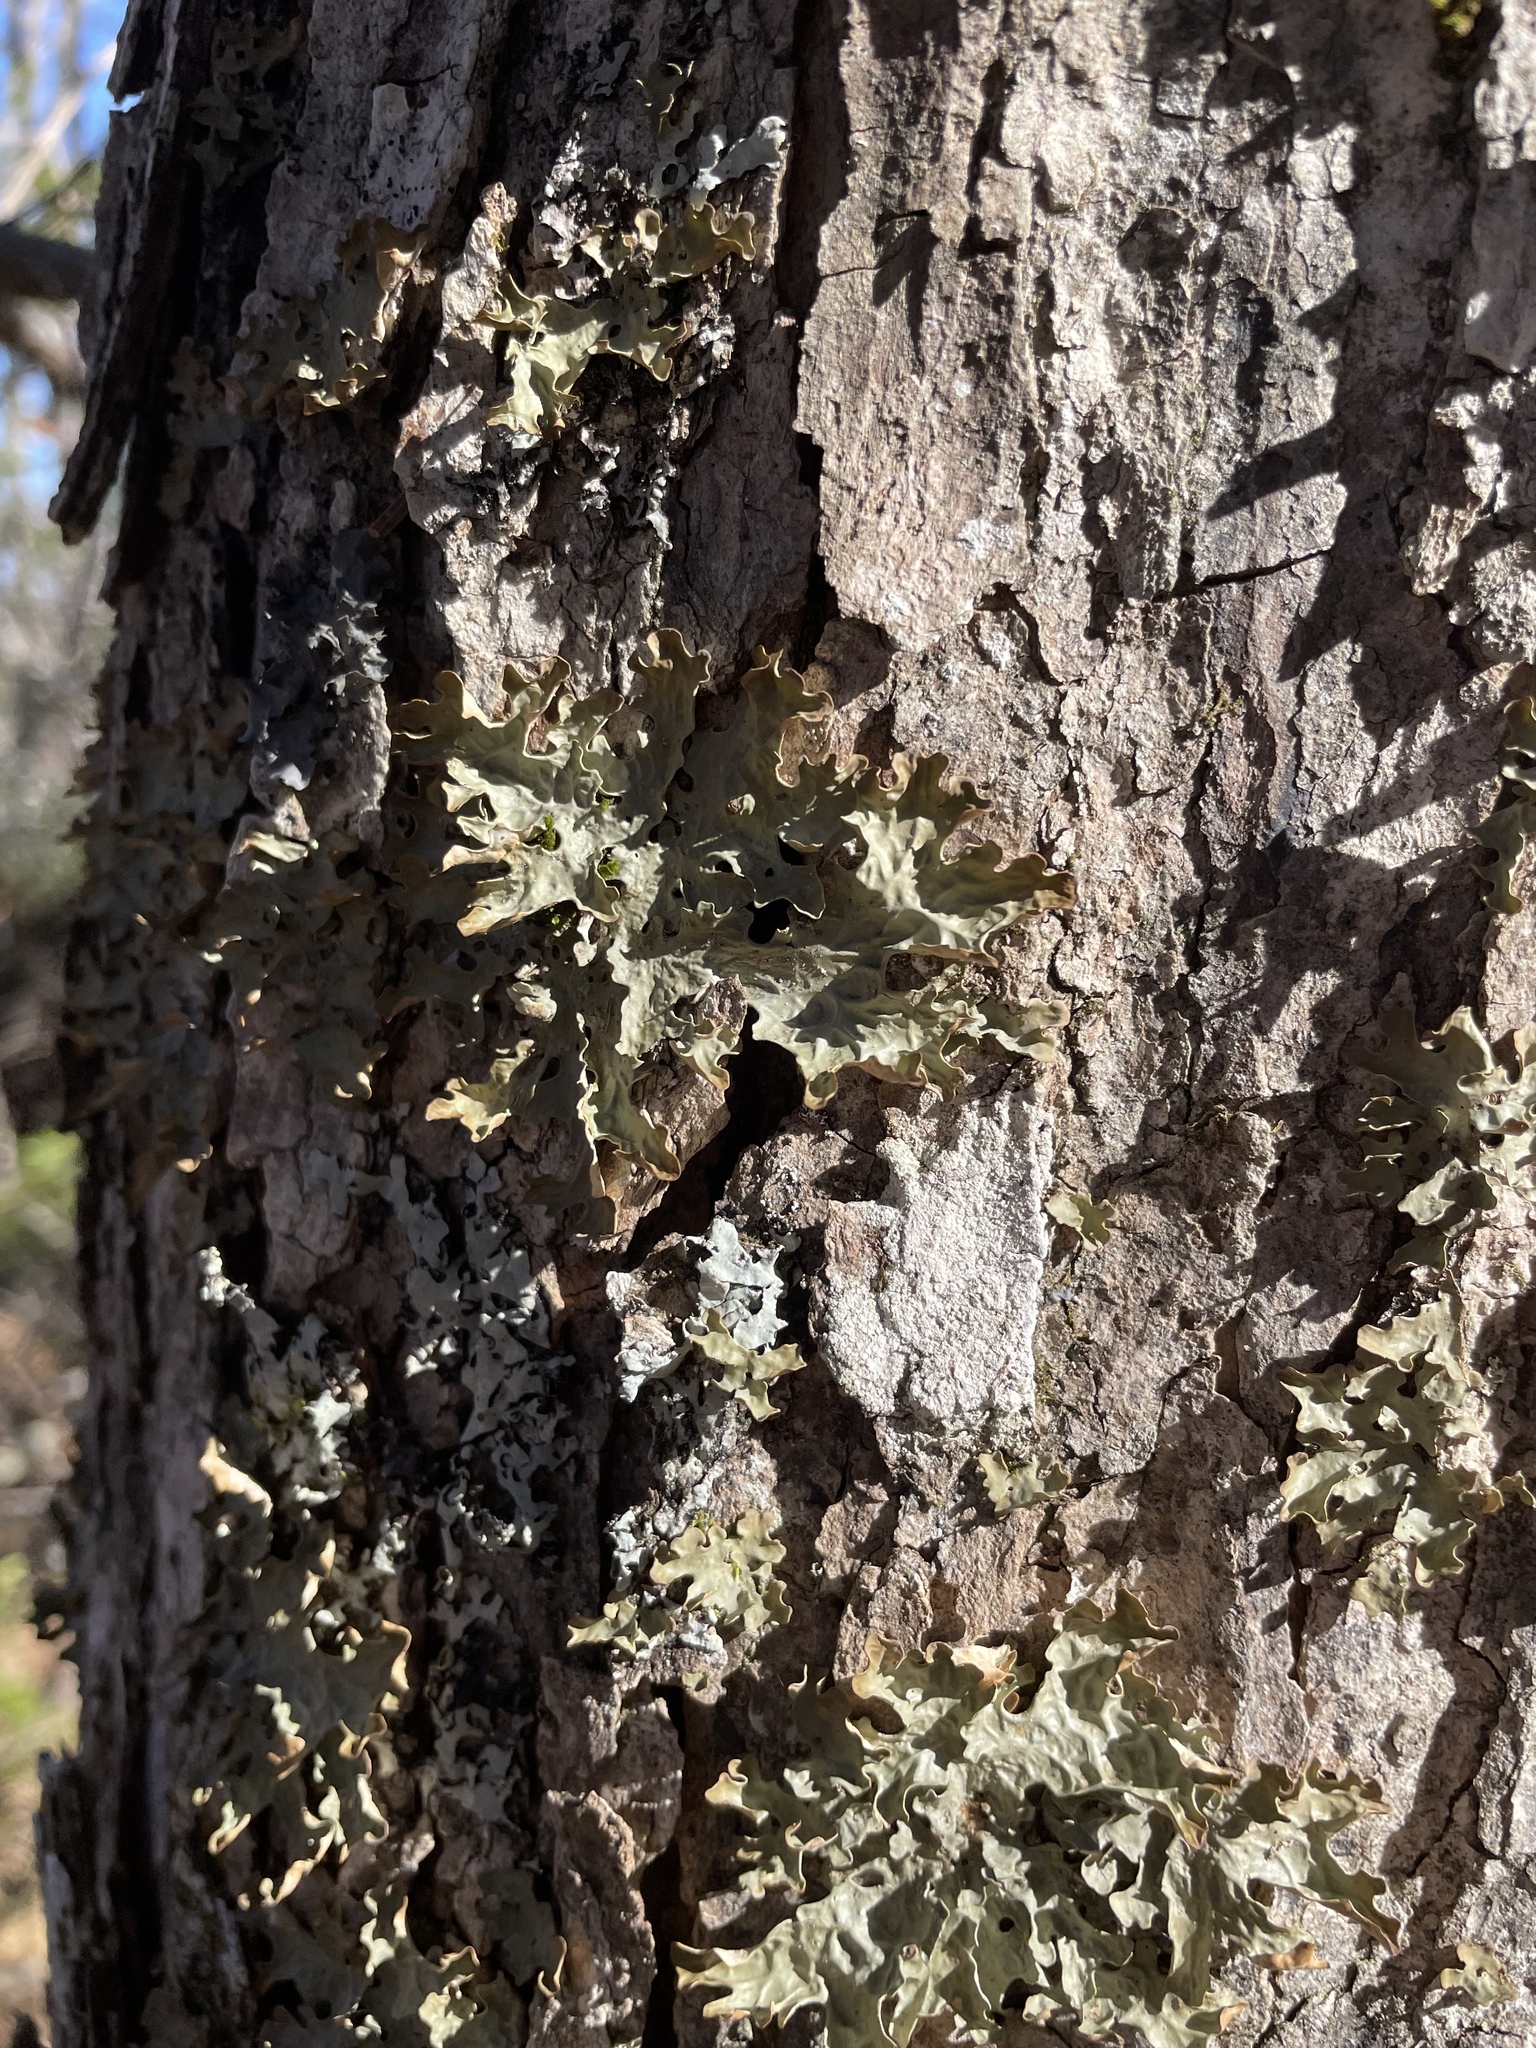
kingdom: Fungi
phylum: Ascomycota
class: Lecanoromycetes
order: Peltigerales
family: Lobariaceae
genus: Lobaria
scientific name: Lobaria pulmonaria
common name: Lungwort
